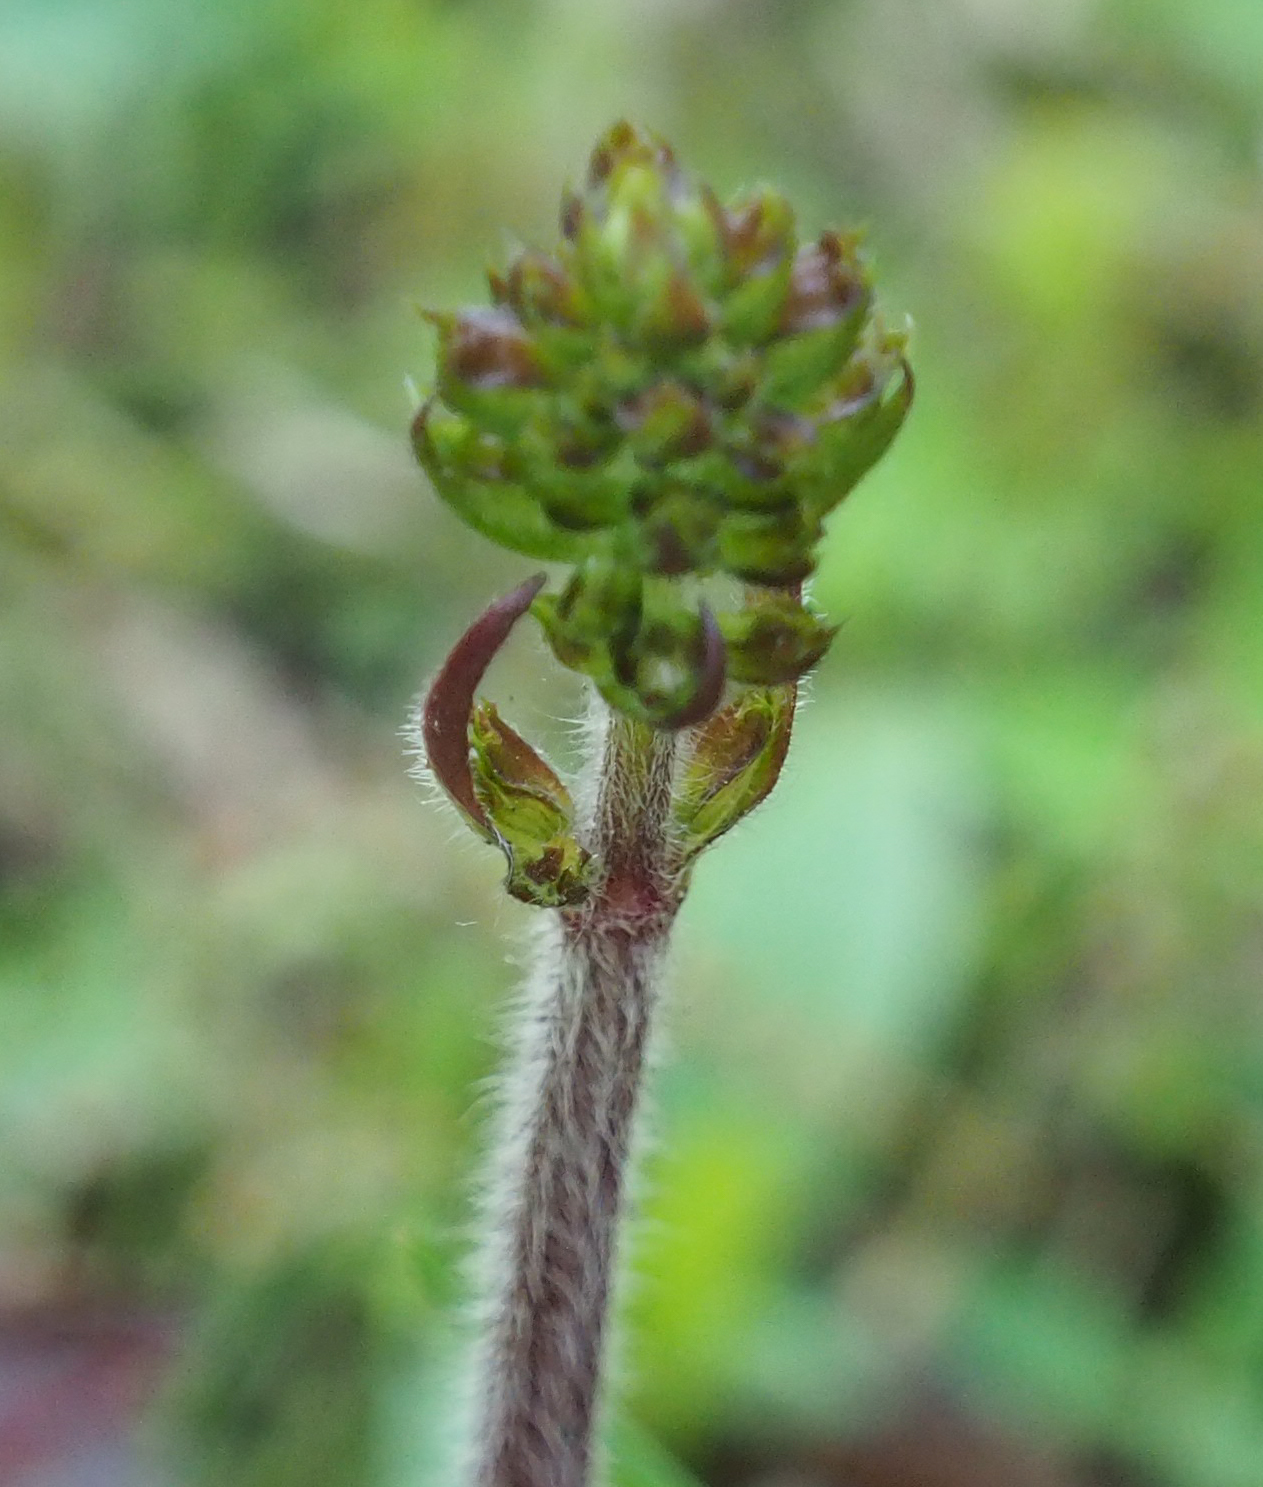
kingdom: Plantae
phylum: Tracheophyta
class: Magnoliopsida
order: Lamiales
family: Lamiaceae
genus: Salvia
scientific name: Salvia lyrata
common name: Cancerweed
